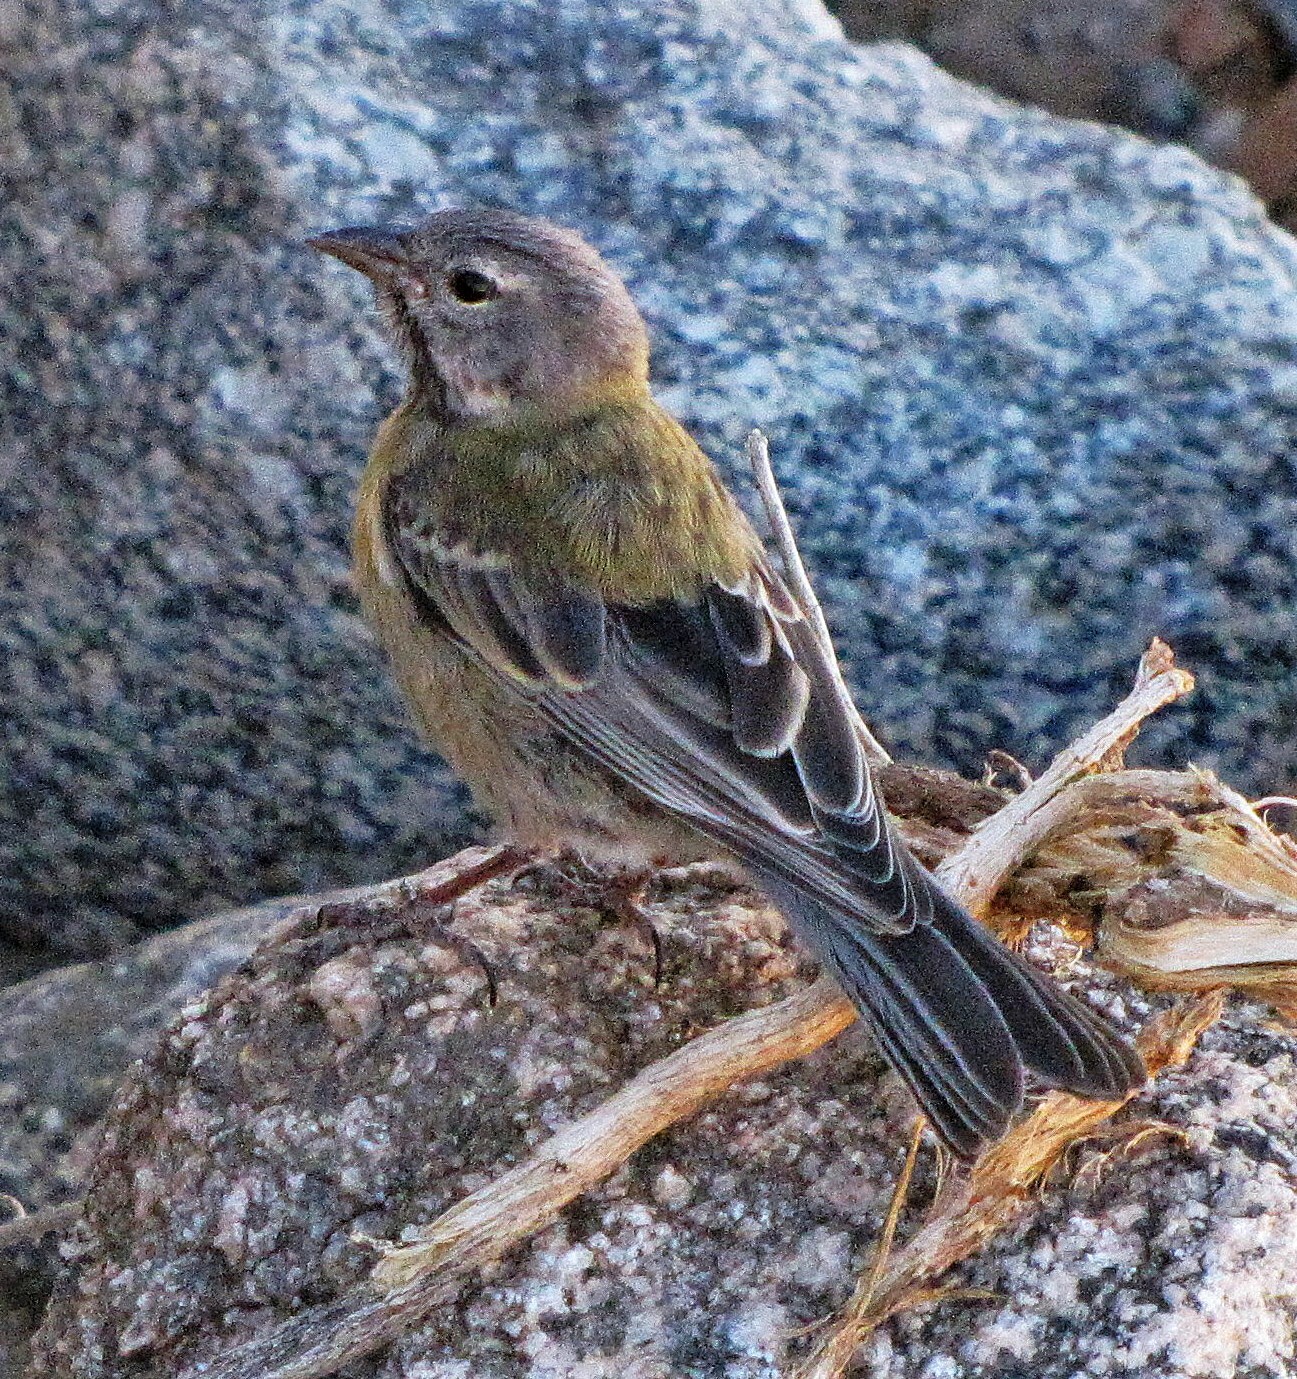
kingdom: Animalia
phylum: Chordata
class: Aves
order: Passeriformes
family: Thraupidae
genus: Phrygilus
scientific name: Phrygilus gayi
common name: Grey-hooded sierra finch
